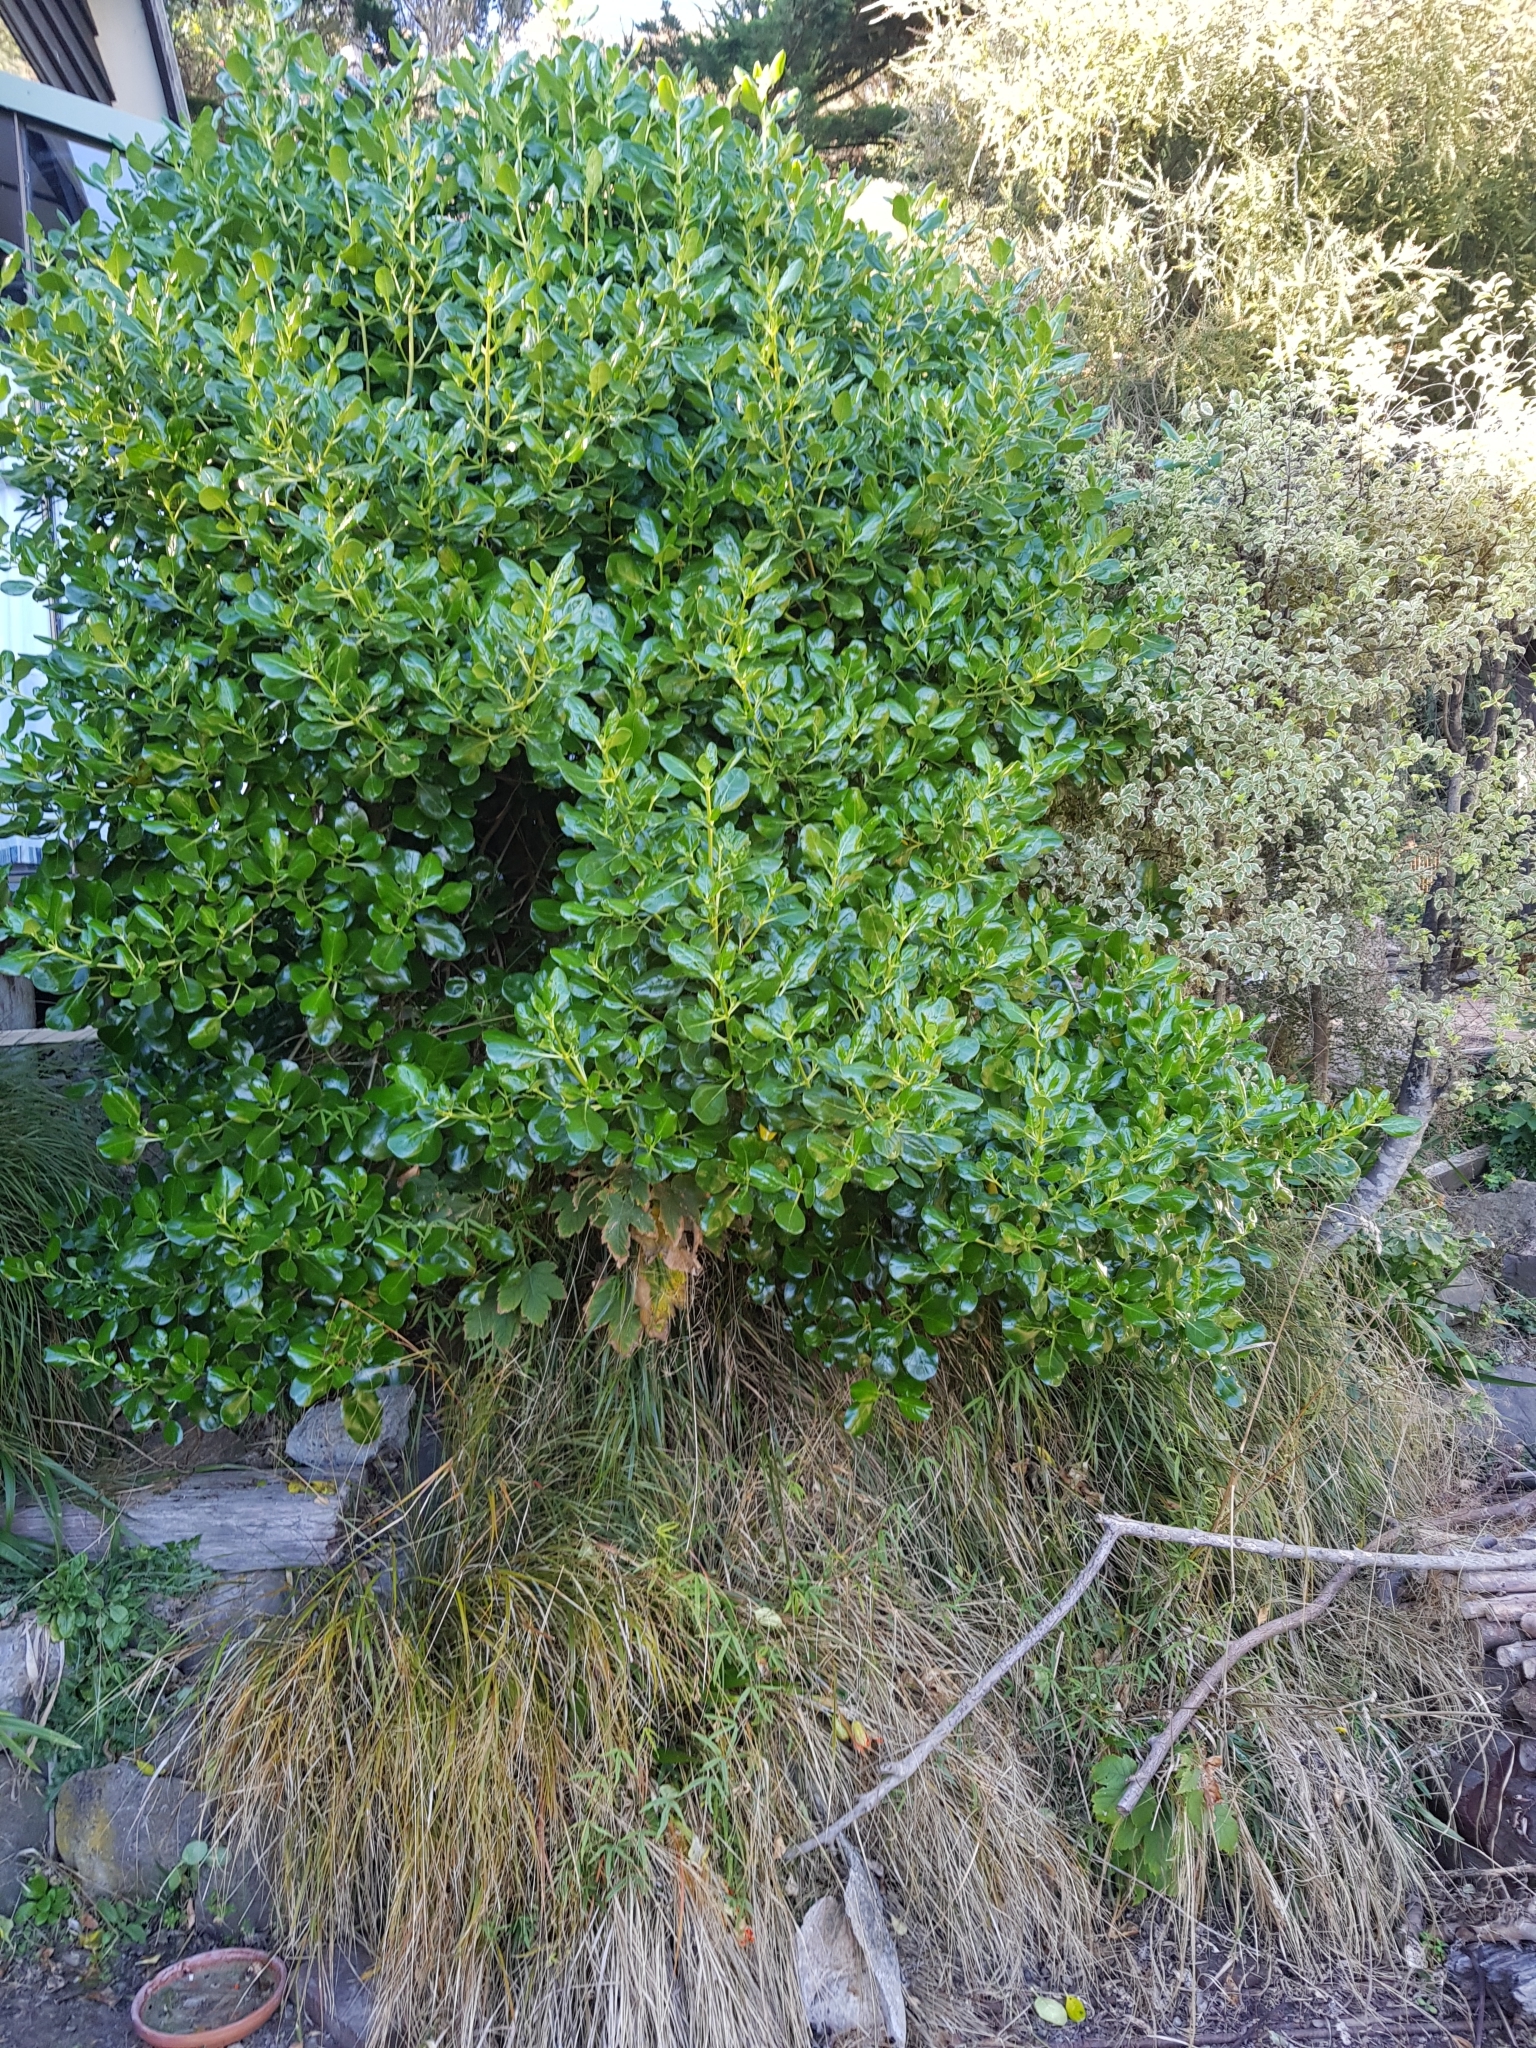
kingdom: Plantae
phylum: Tracheophyta
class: Magnoliopsida
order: Gentianales
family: Rubiaceae
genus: Coprosma
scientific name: Coprosma repens
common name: Tree bedstraw
